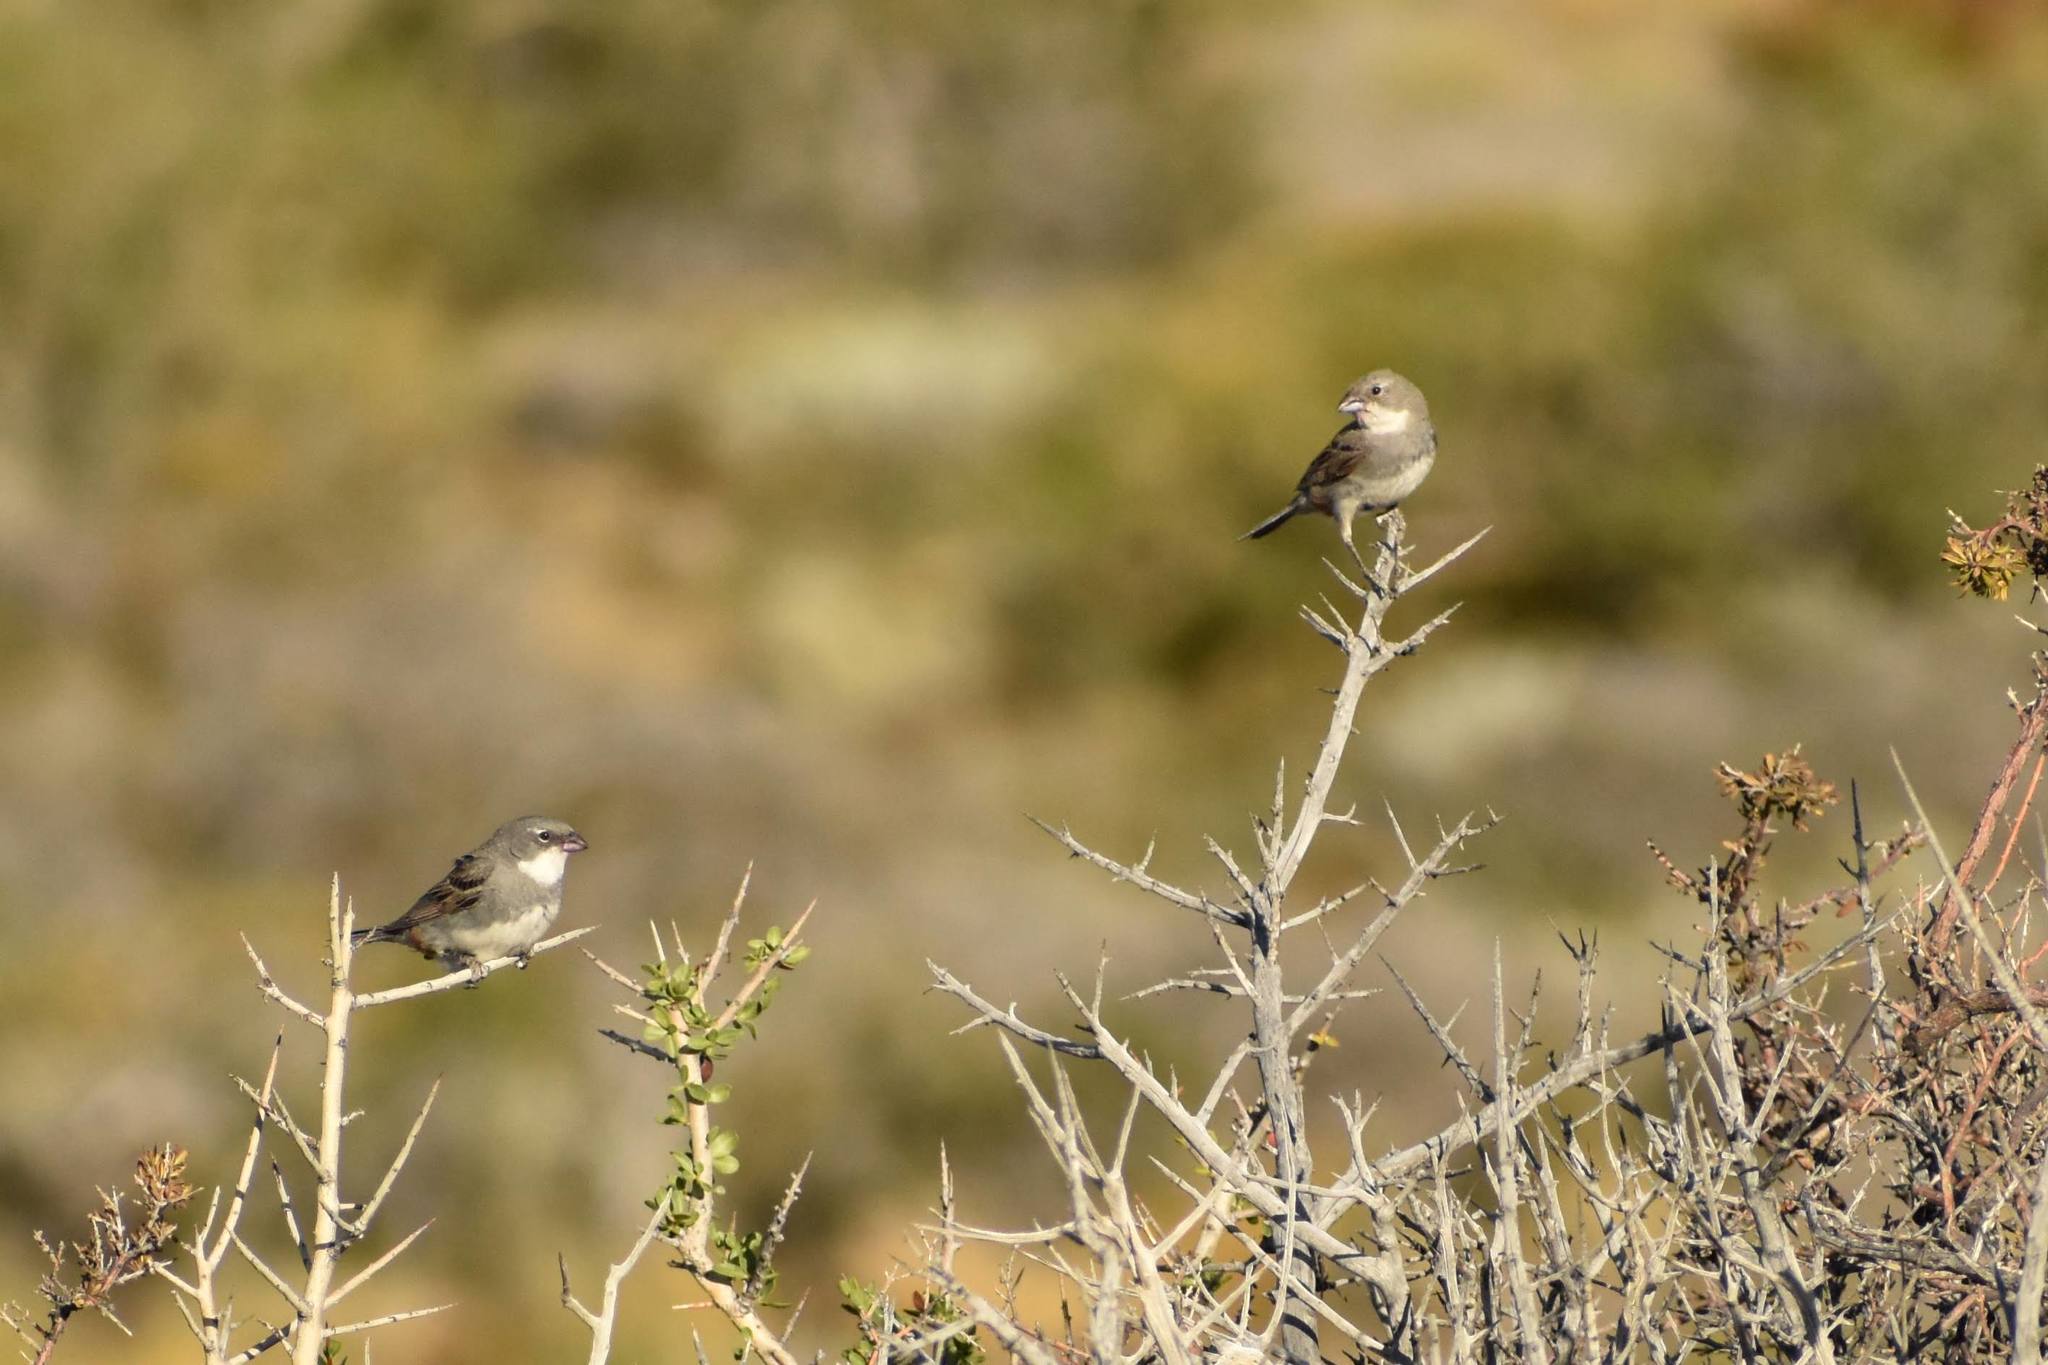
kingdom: Animalia
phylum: Chordata
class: Aves
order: Passeriformes
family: Thraupidae
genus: Diuca
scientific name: Diuca diuca
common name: Common diuca finch
